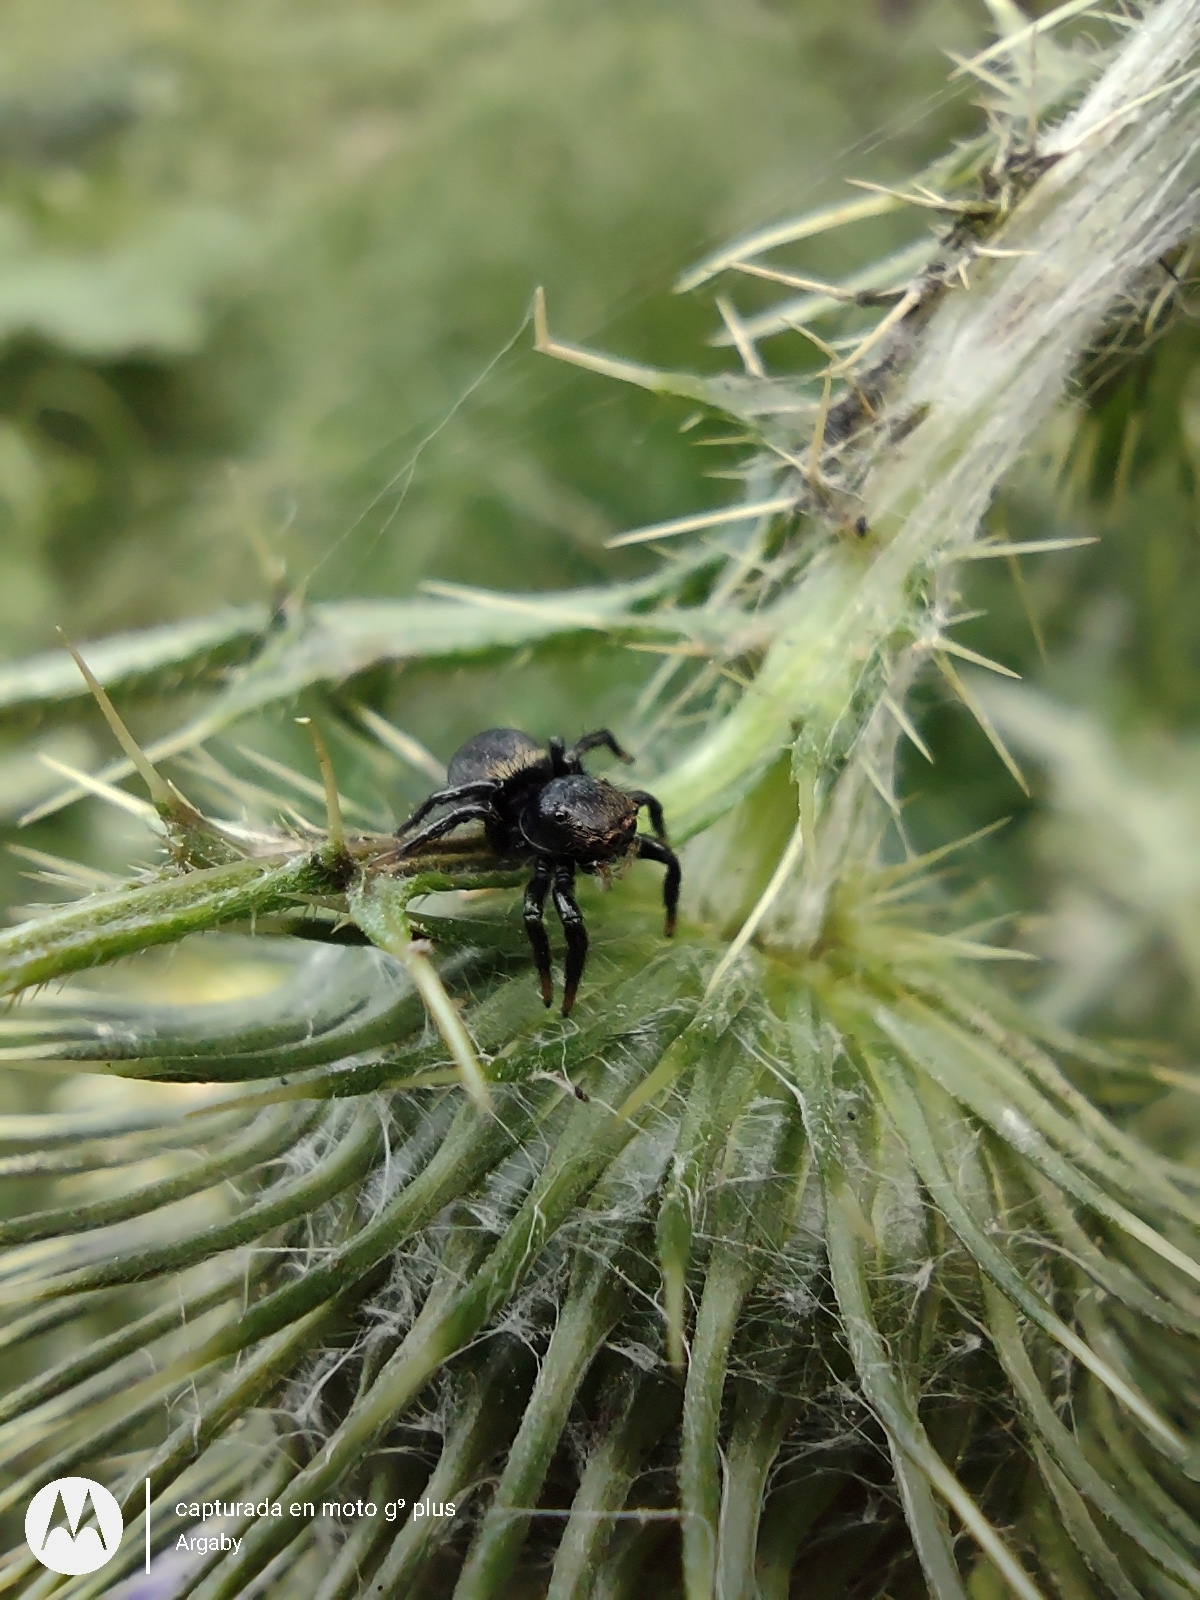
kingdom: Animalia
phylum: Arthropoda
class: Arachnida
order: Araneae
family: Salticidae
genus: Phiale
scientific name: Phiale roburifoliata
